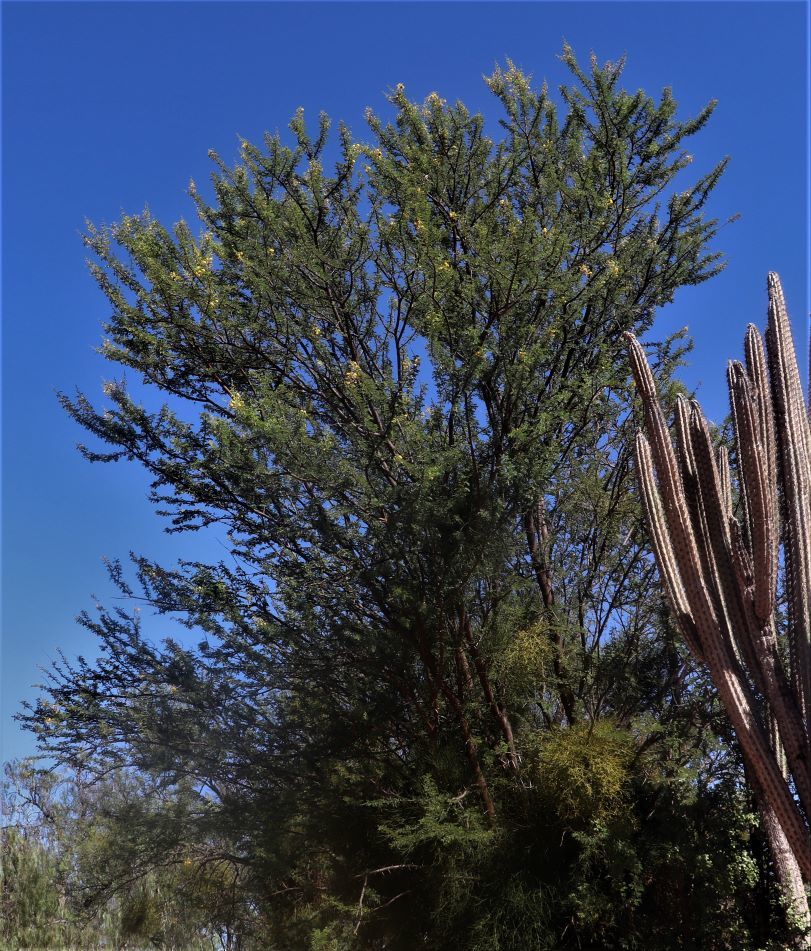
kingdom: Plantae
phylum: Tracheophyta
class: Magnoliopsida
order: Fabales
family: Fabaceae
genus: Vachellia
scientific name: Vachellia karroo
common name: Sweet thorn
